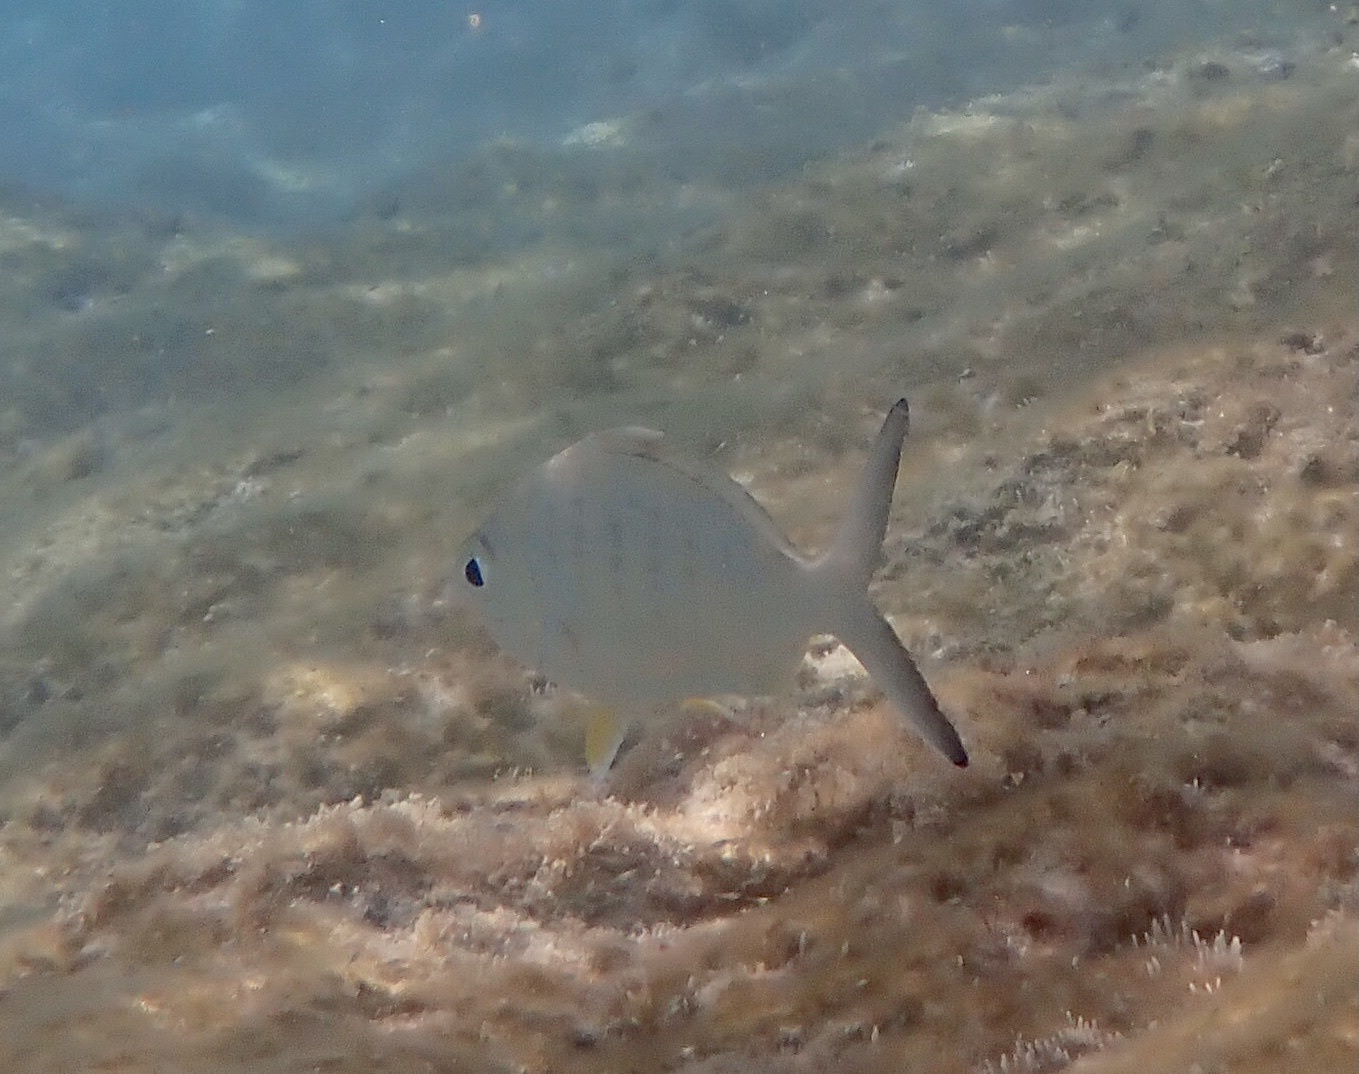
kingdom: Animalia
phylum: Chordata
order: Perciformes
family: Gerreidae
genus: Gerres
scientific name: Gerres cinereus
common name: Hedow
